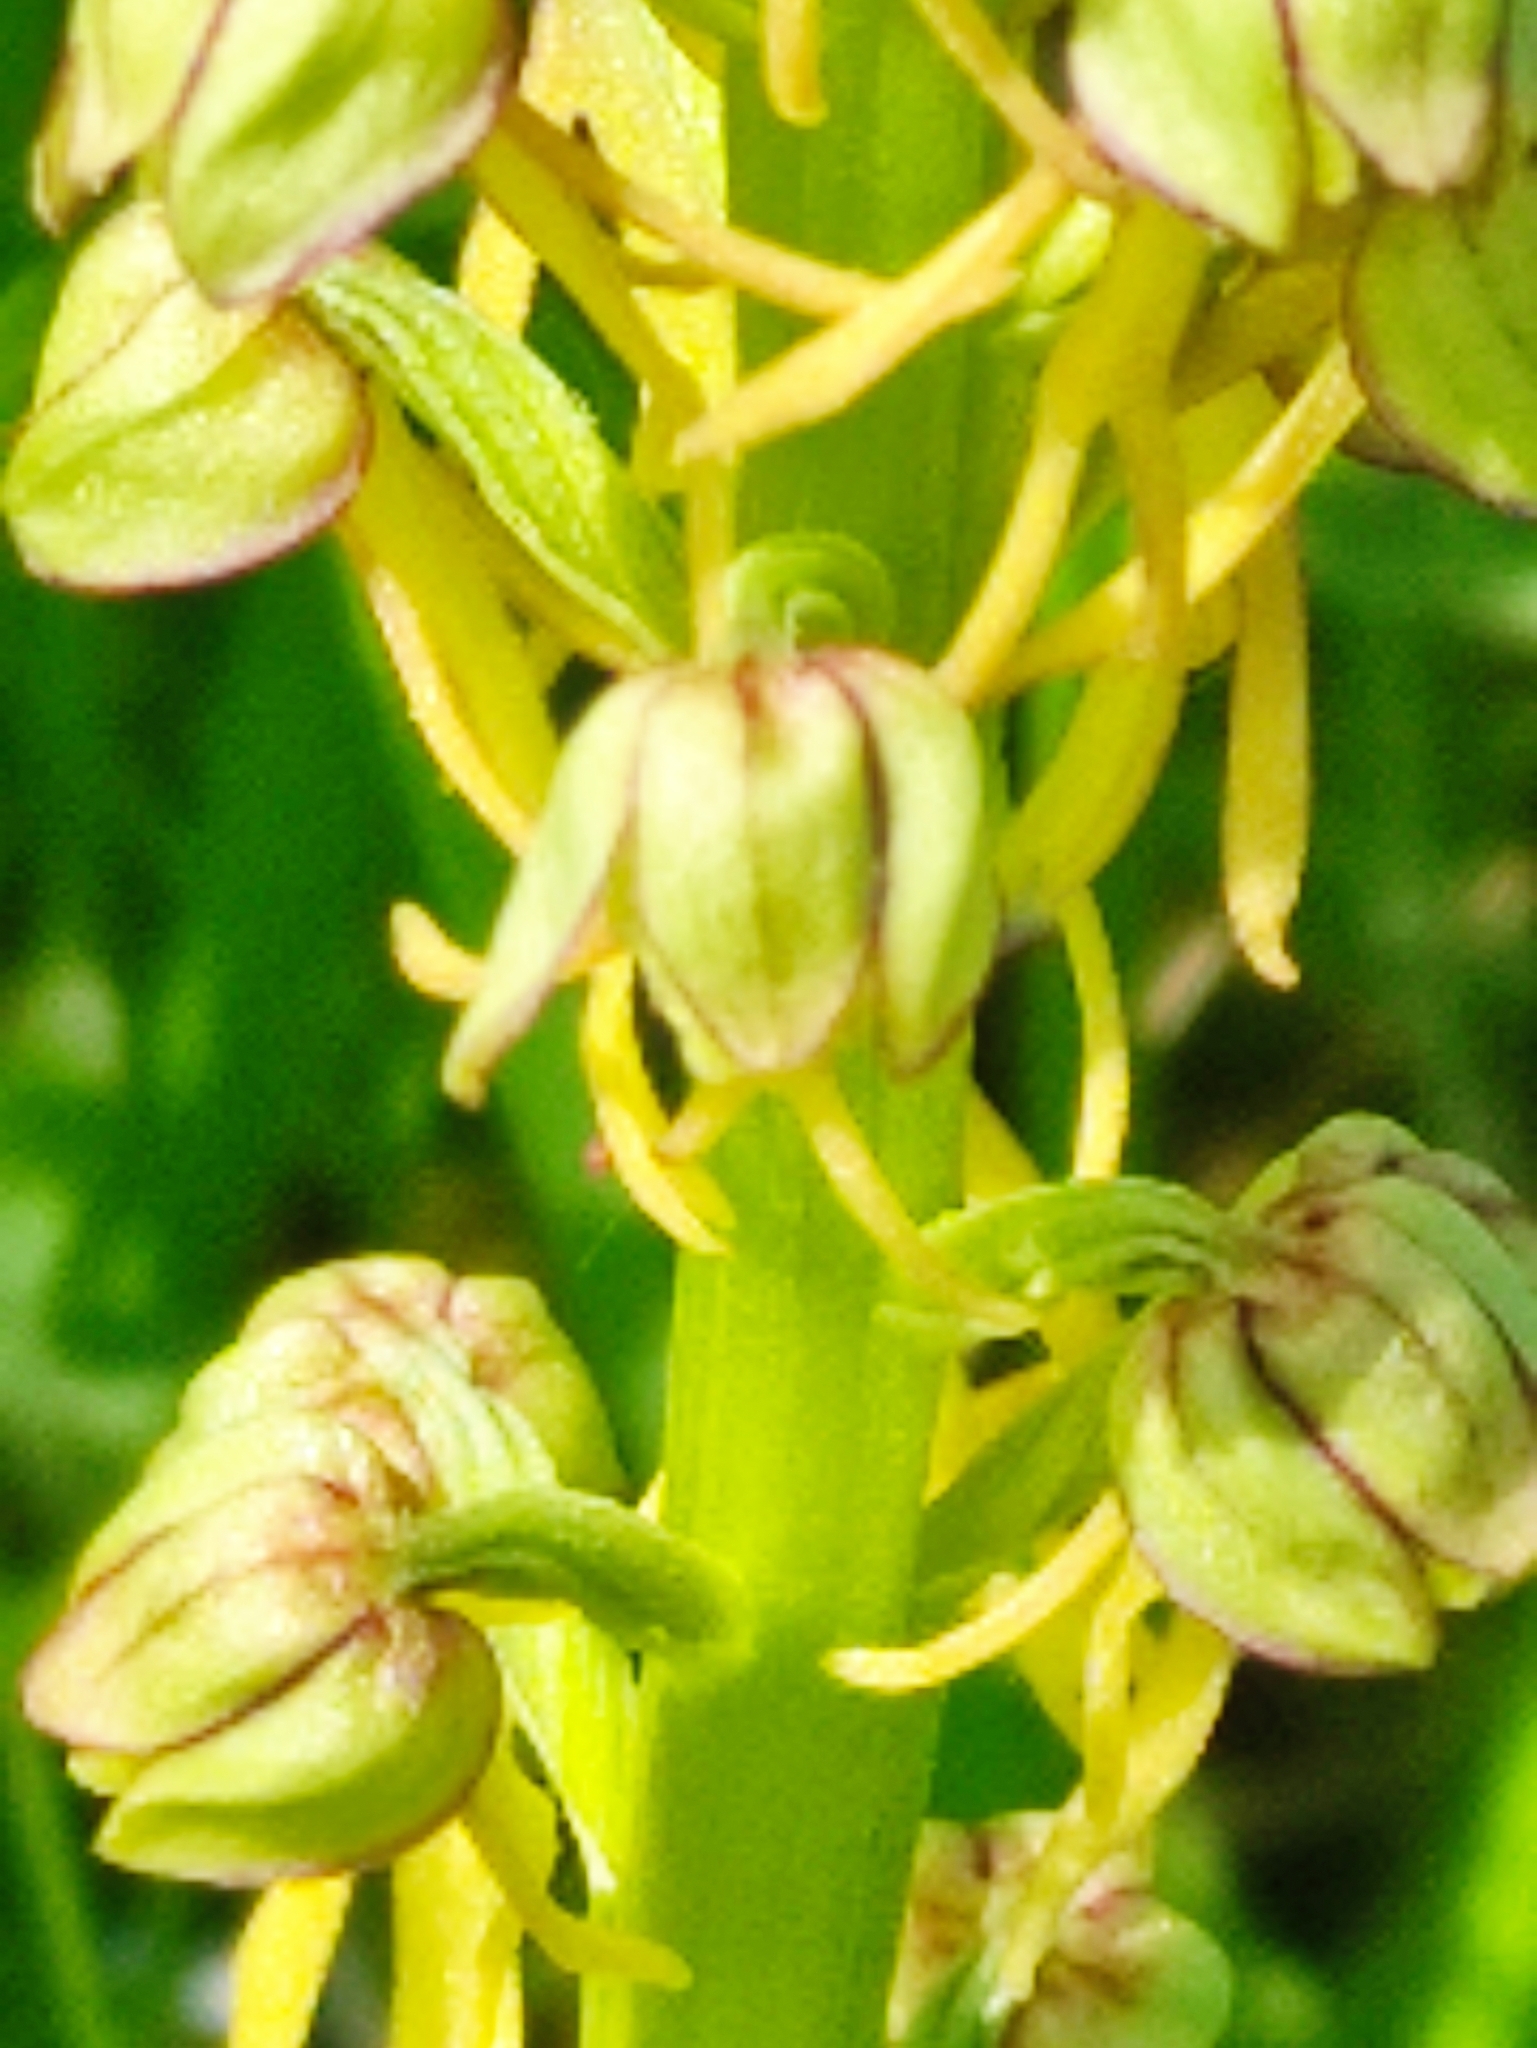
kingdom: Plantae
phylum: Tracheophyta
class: Liliopsida
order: Asparagales
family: Orchidaceae
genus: Orchis
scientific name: Orchis anthropophora
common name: Man orchid
